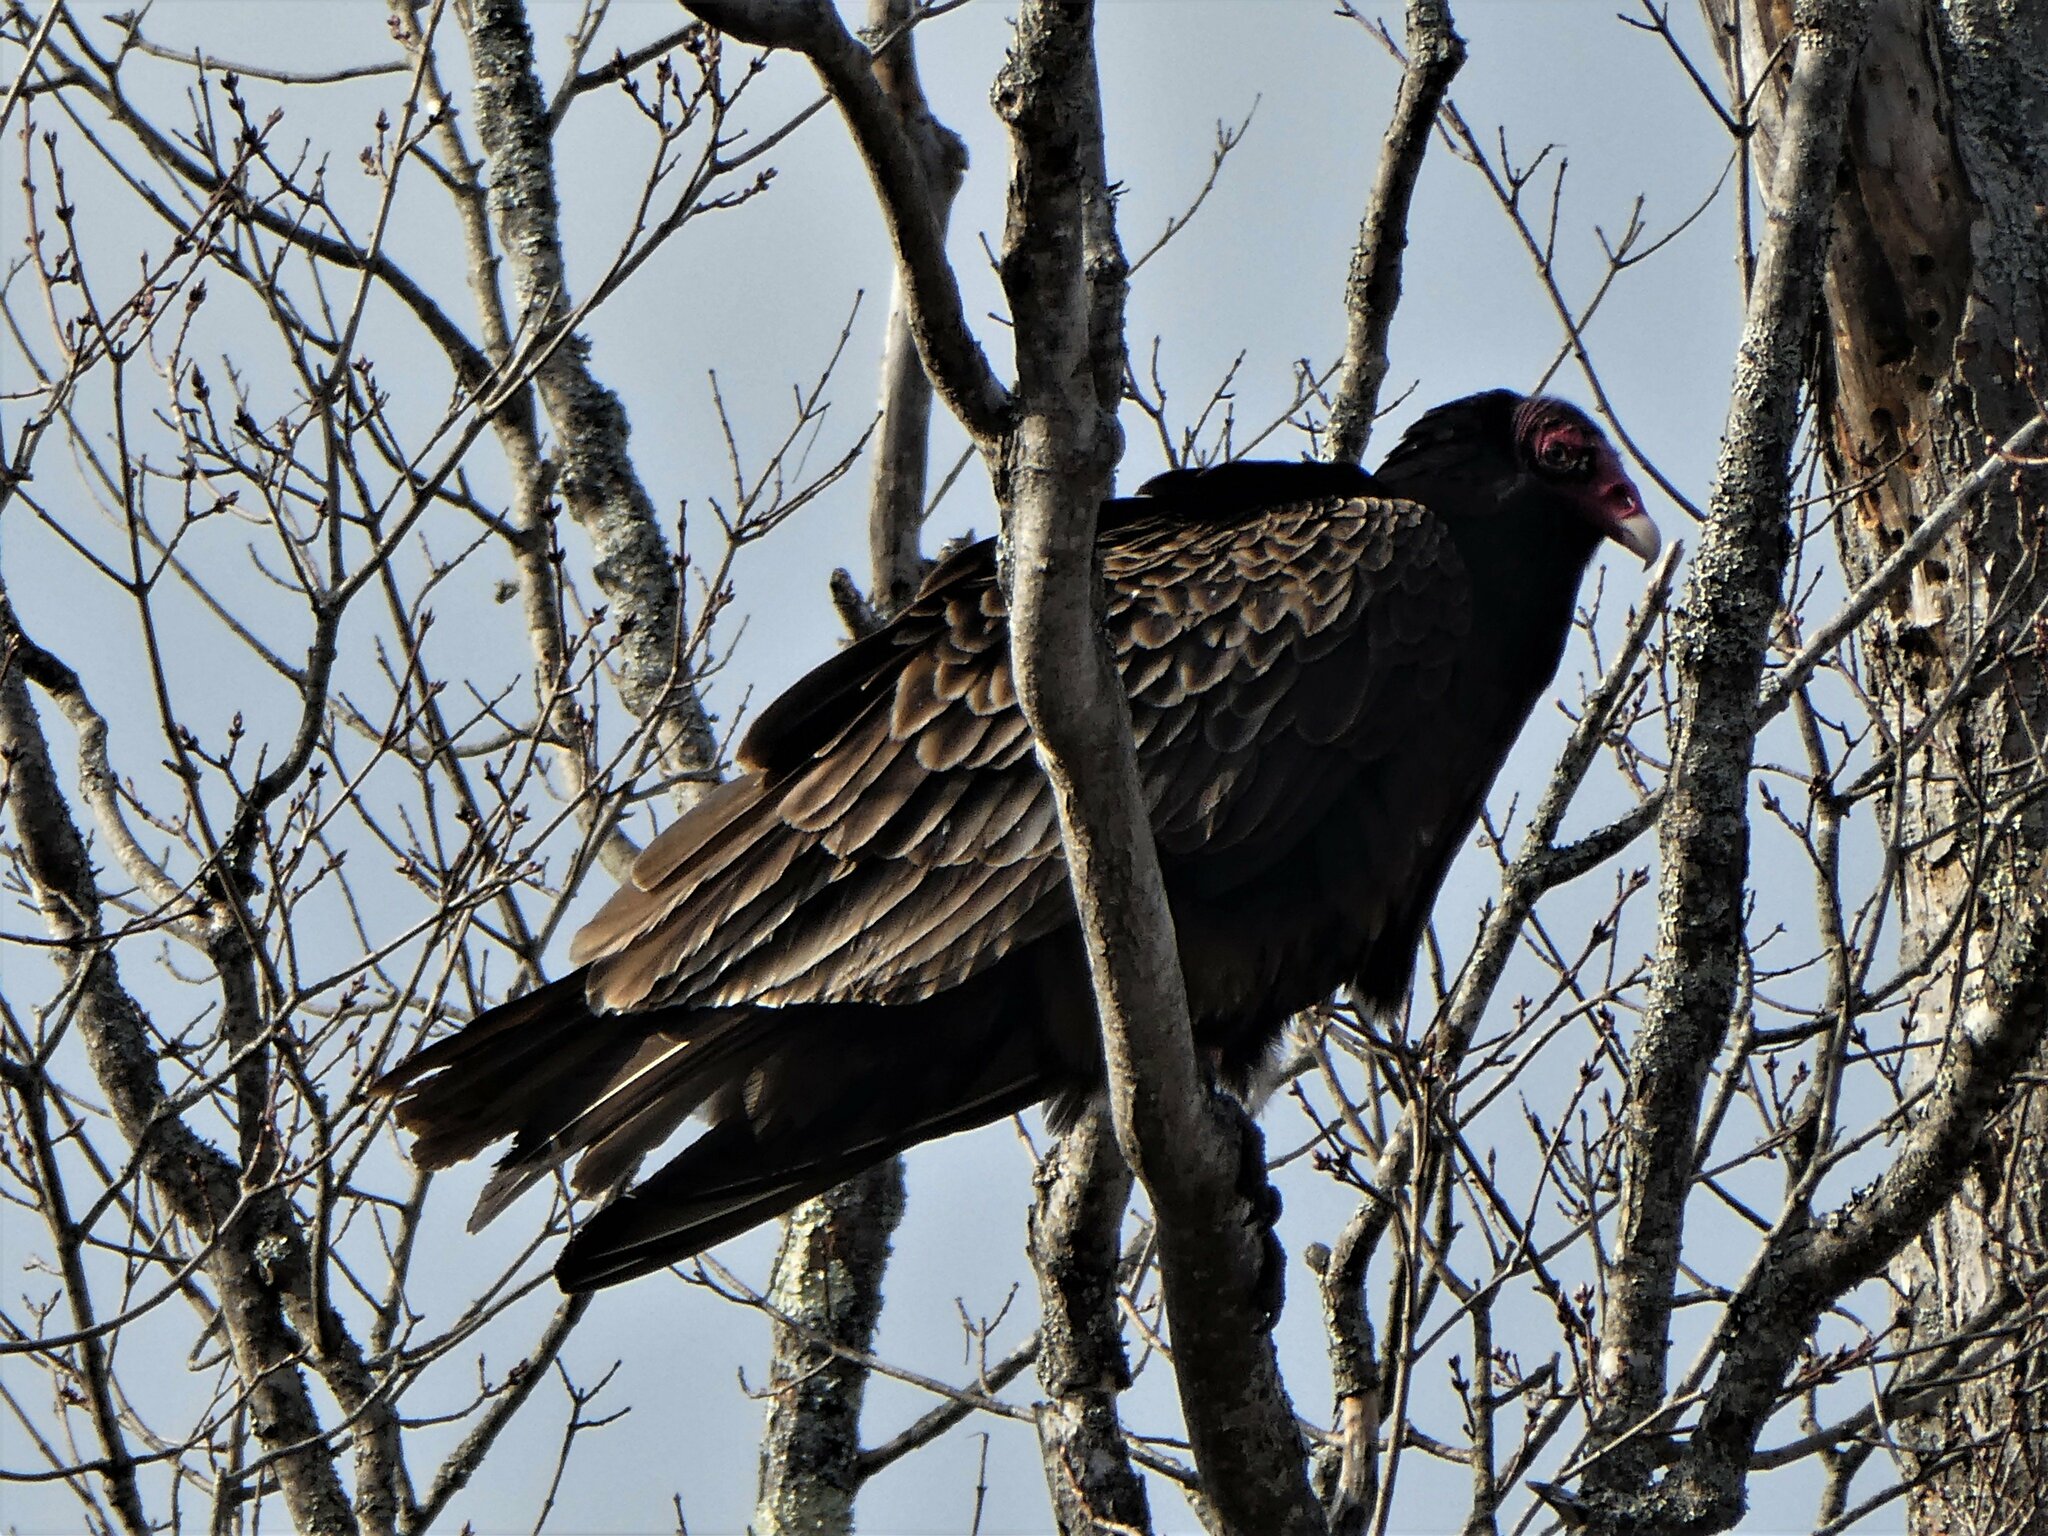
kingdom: Animalia
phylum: Chordata
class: Aves
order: Accipitriformes
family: Cathartidae
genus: Cathartes
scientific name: Cathartes aura
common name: Turkey vulture
